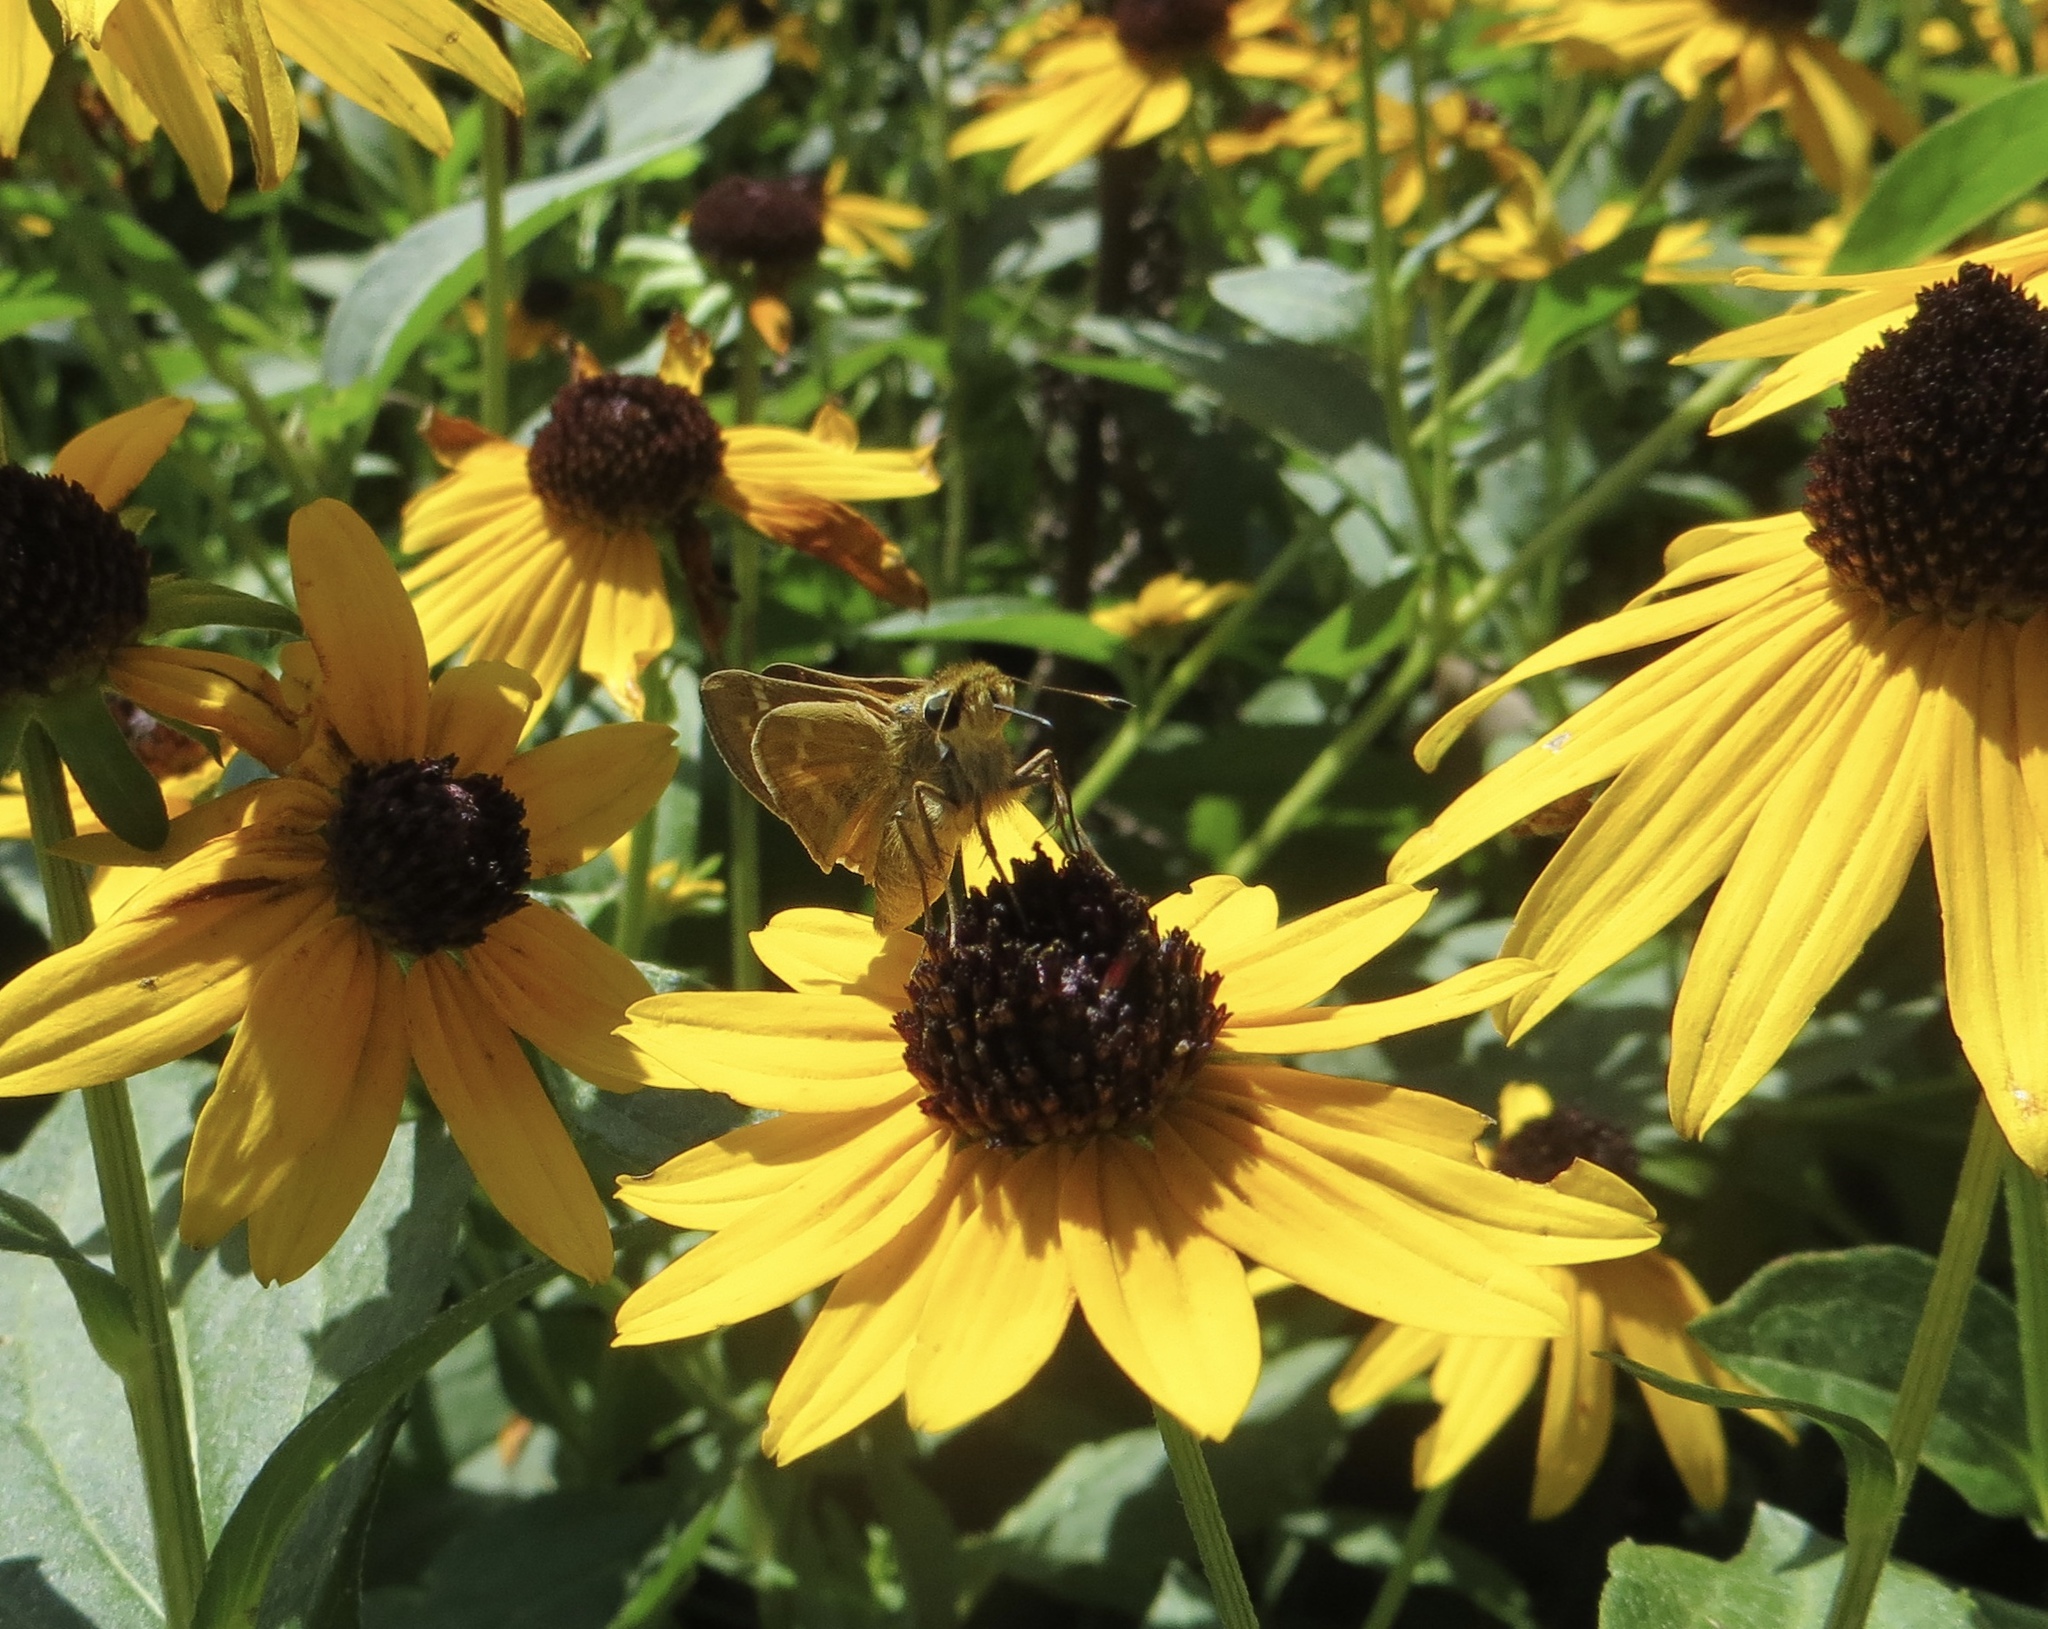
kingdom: Animalia
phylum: Arthropoda
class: Insecta
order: Lepidoptera
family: Hesperiidae
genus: Atalopedes
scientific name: Atalopedes
